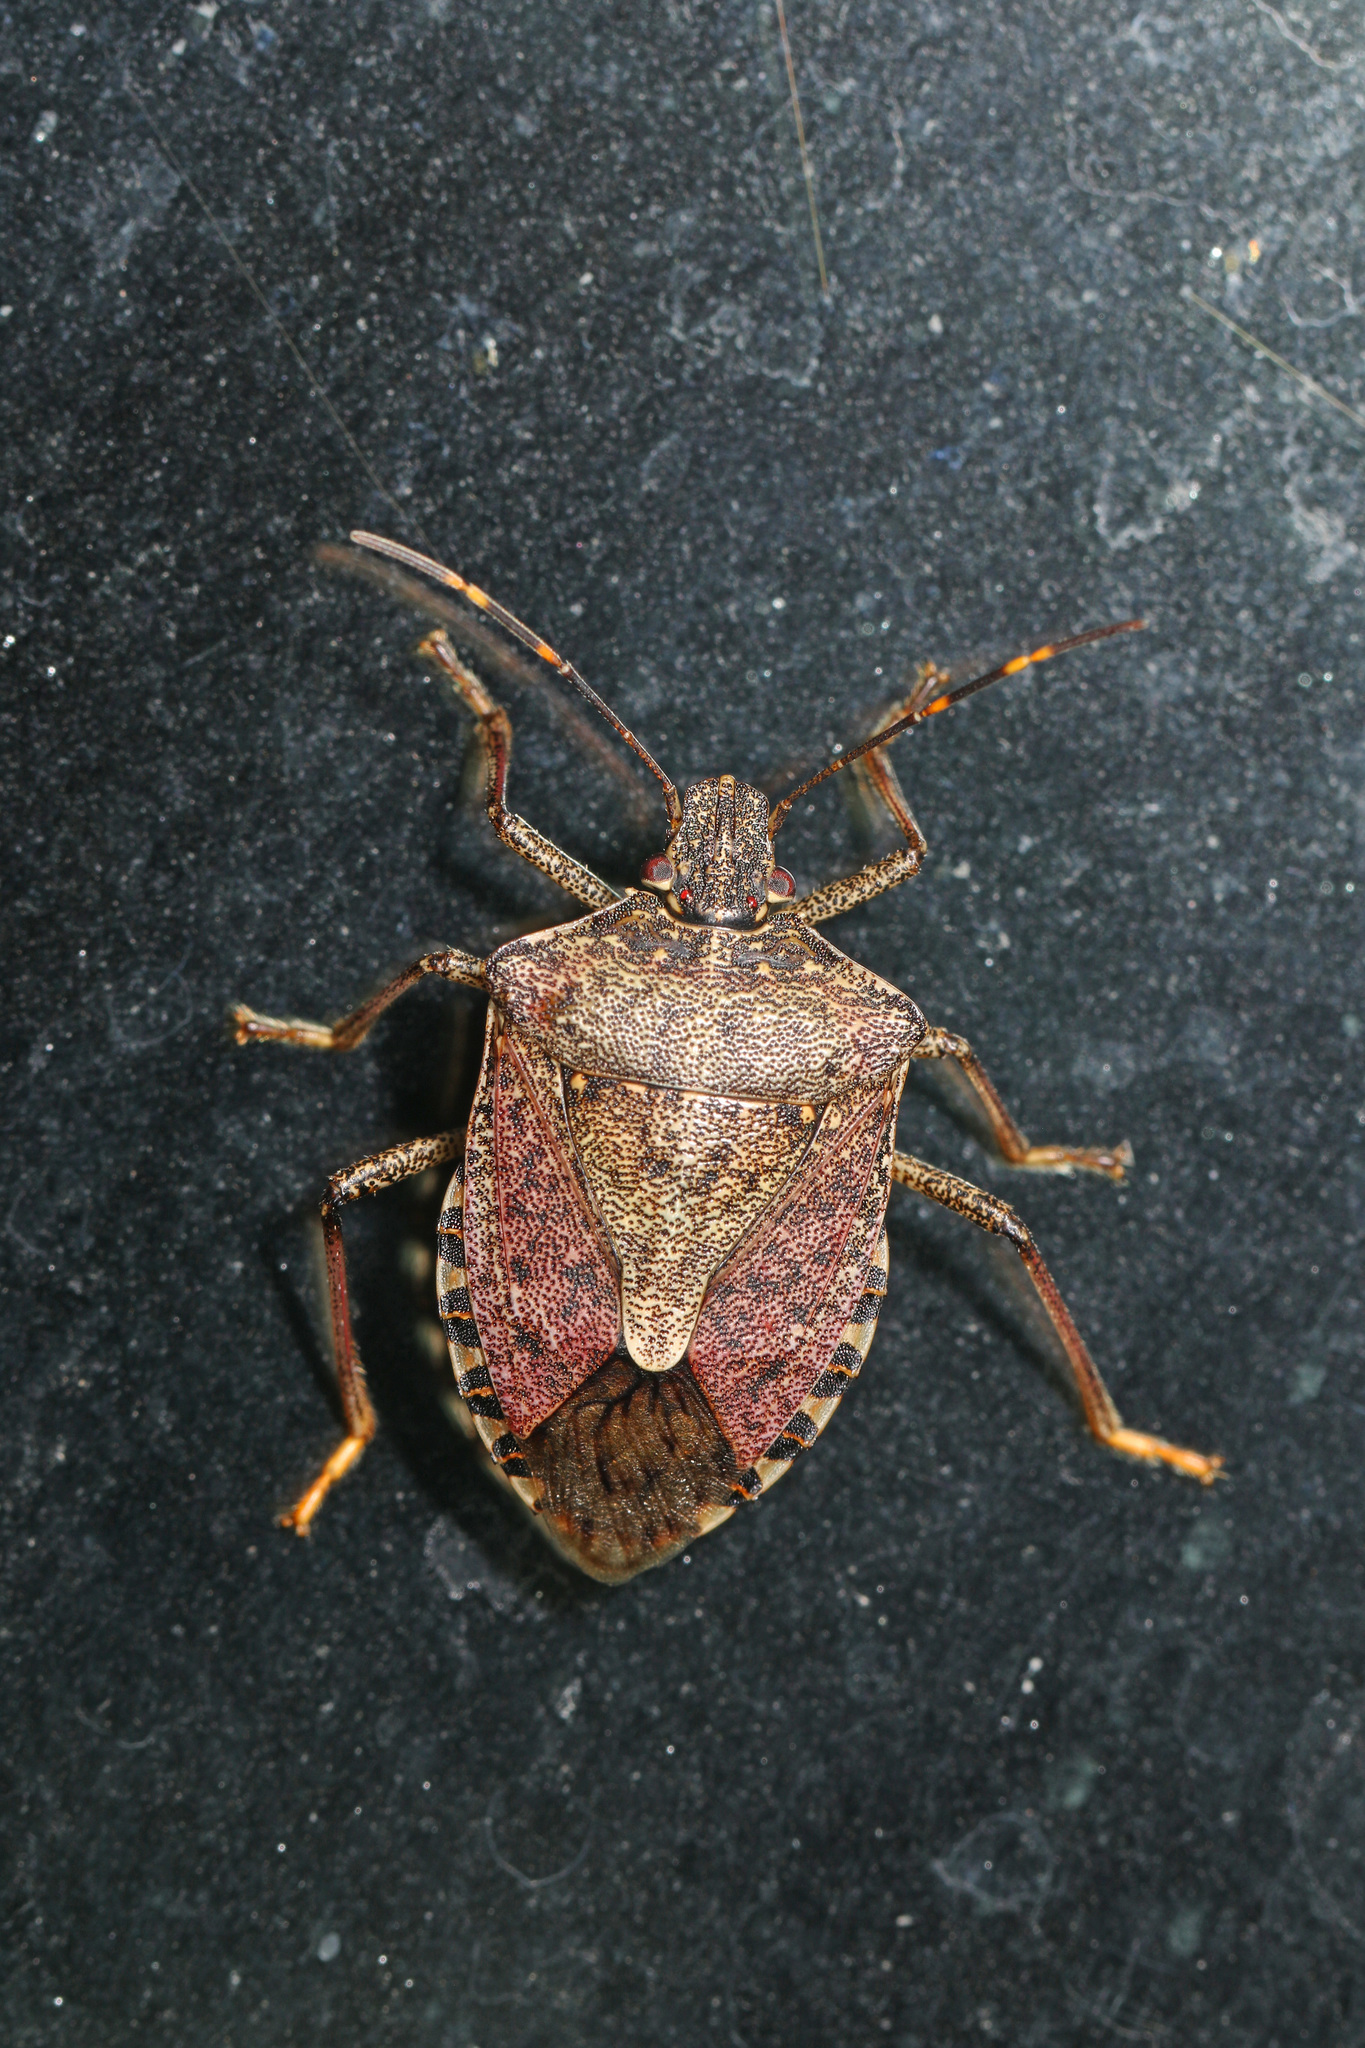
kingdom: Animalia
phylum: Arthropoda
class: Insecta
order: Hemiptera
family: Pentatomidae
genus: Halyomorpha
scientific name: Halyomorpha halys
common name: Brown marmorated stink bug
